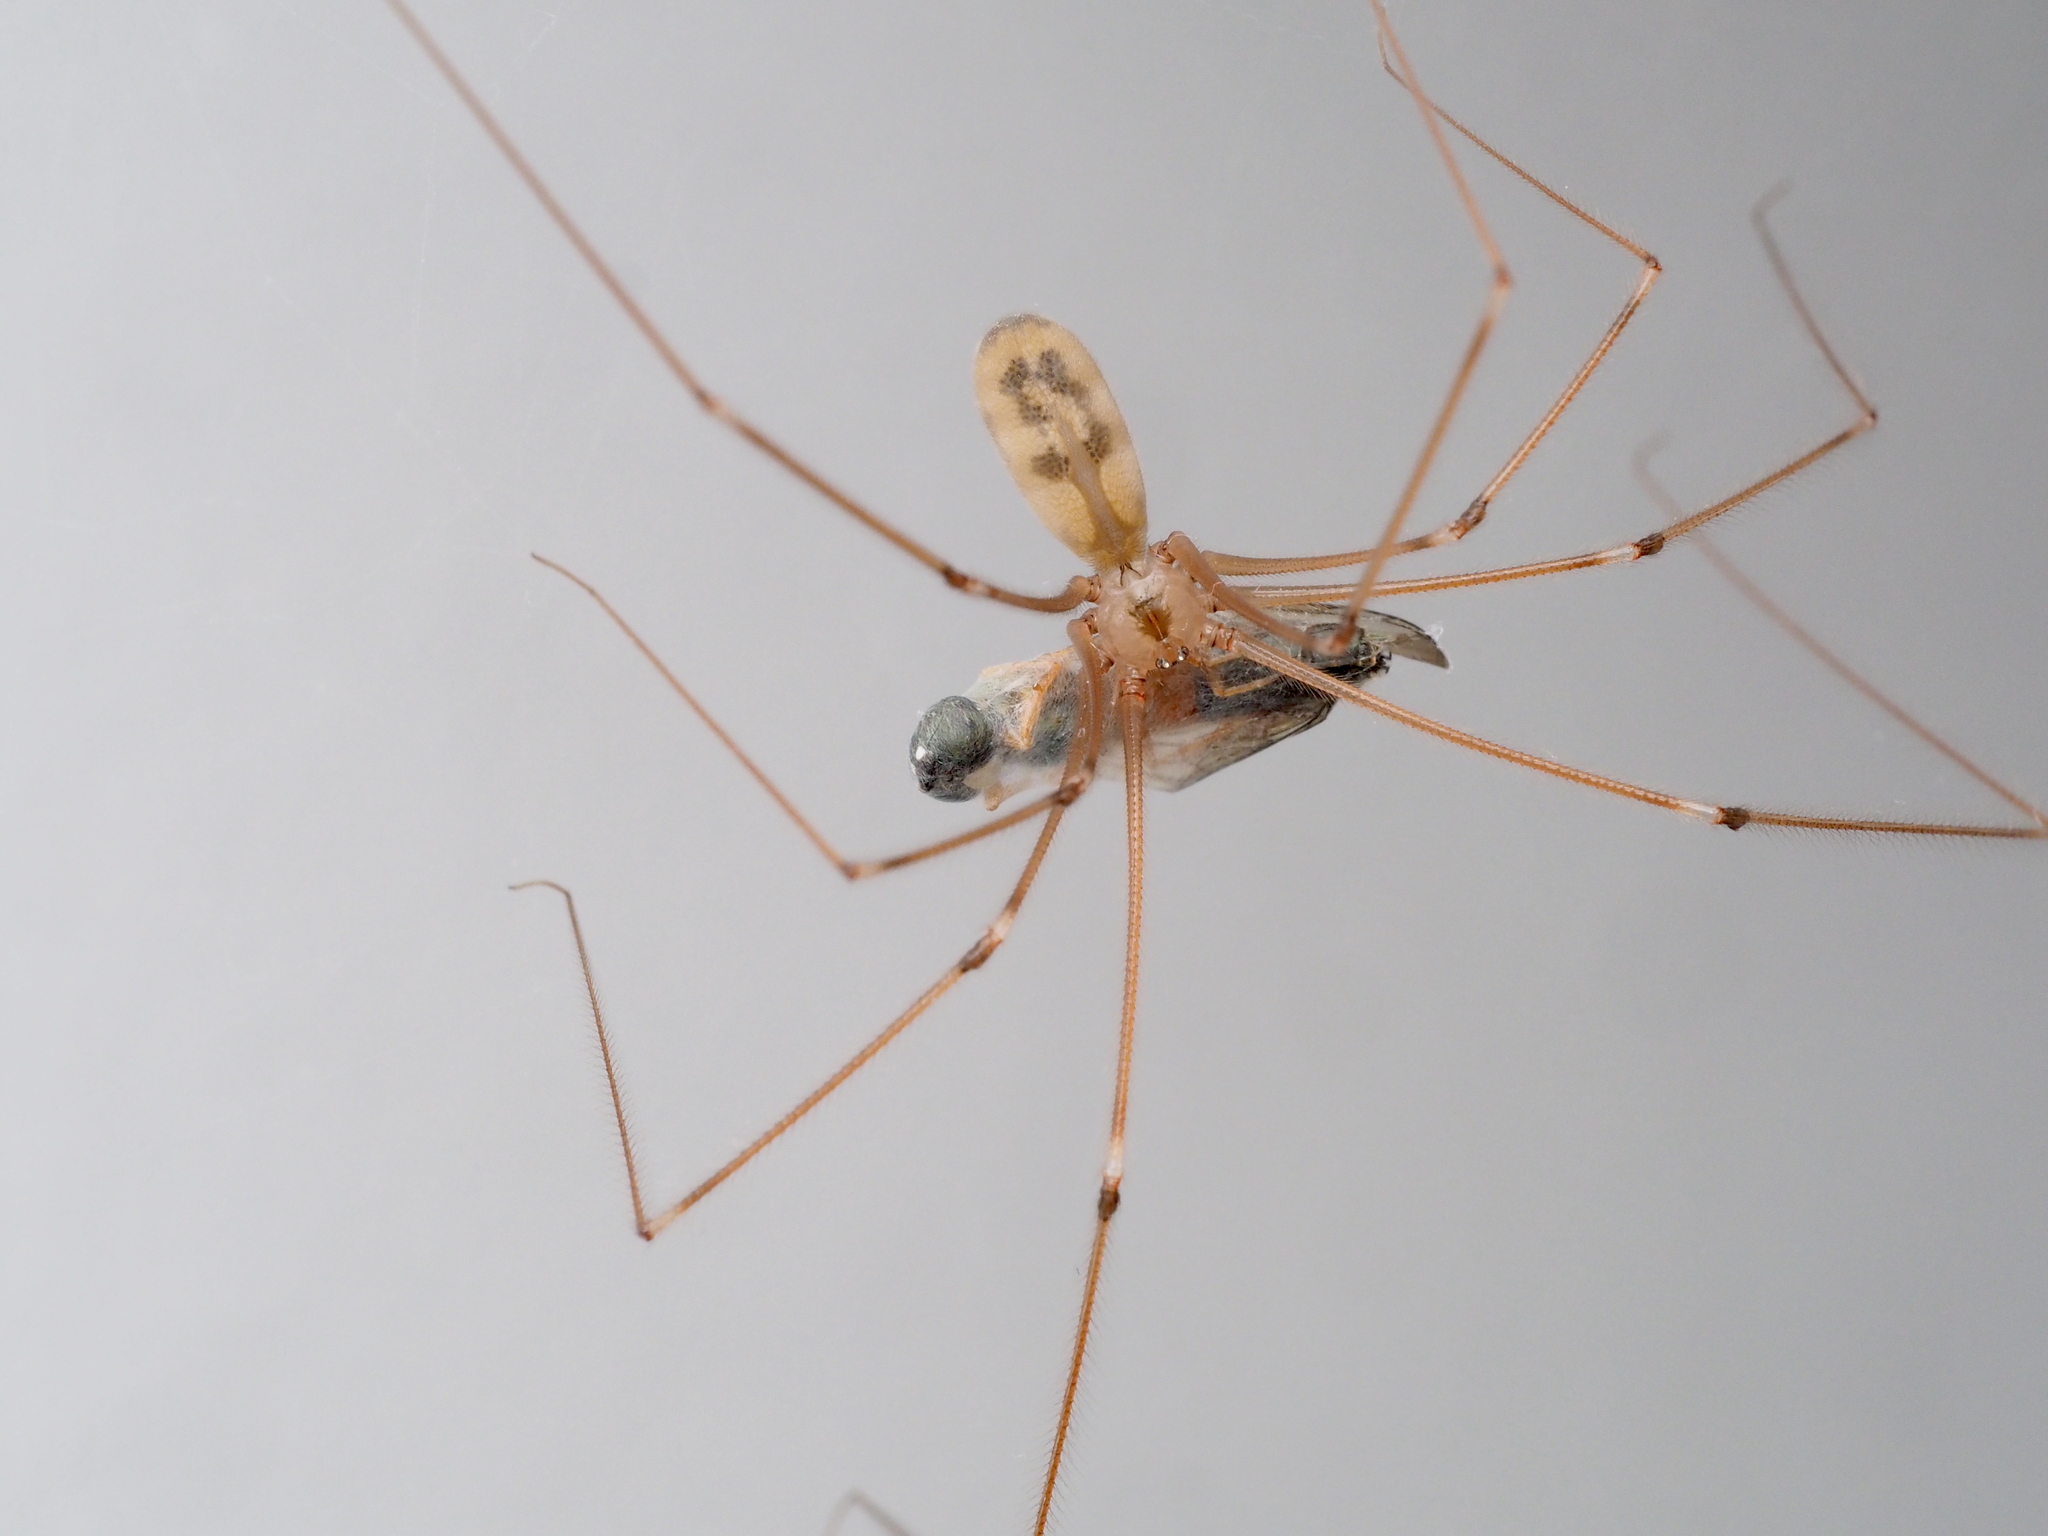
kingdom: Animalia
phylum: Arthropoda
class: Insecta
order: Diptera
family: Stratiomyidae
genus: Sargus
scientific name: Sargus bipunctatus
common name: Twin-spot centurion
